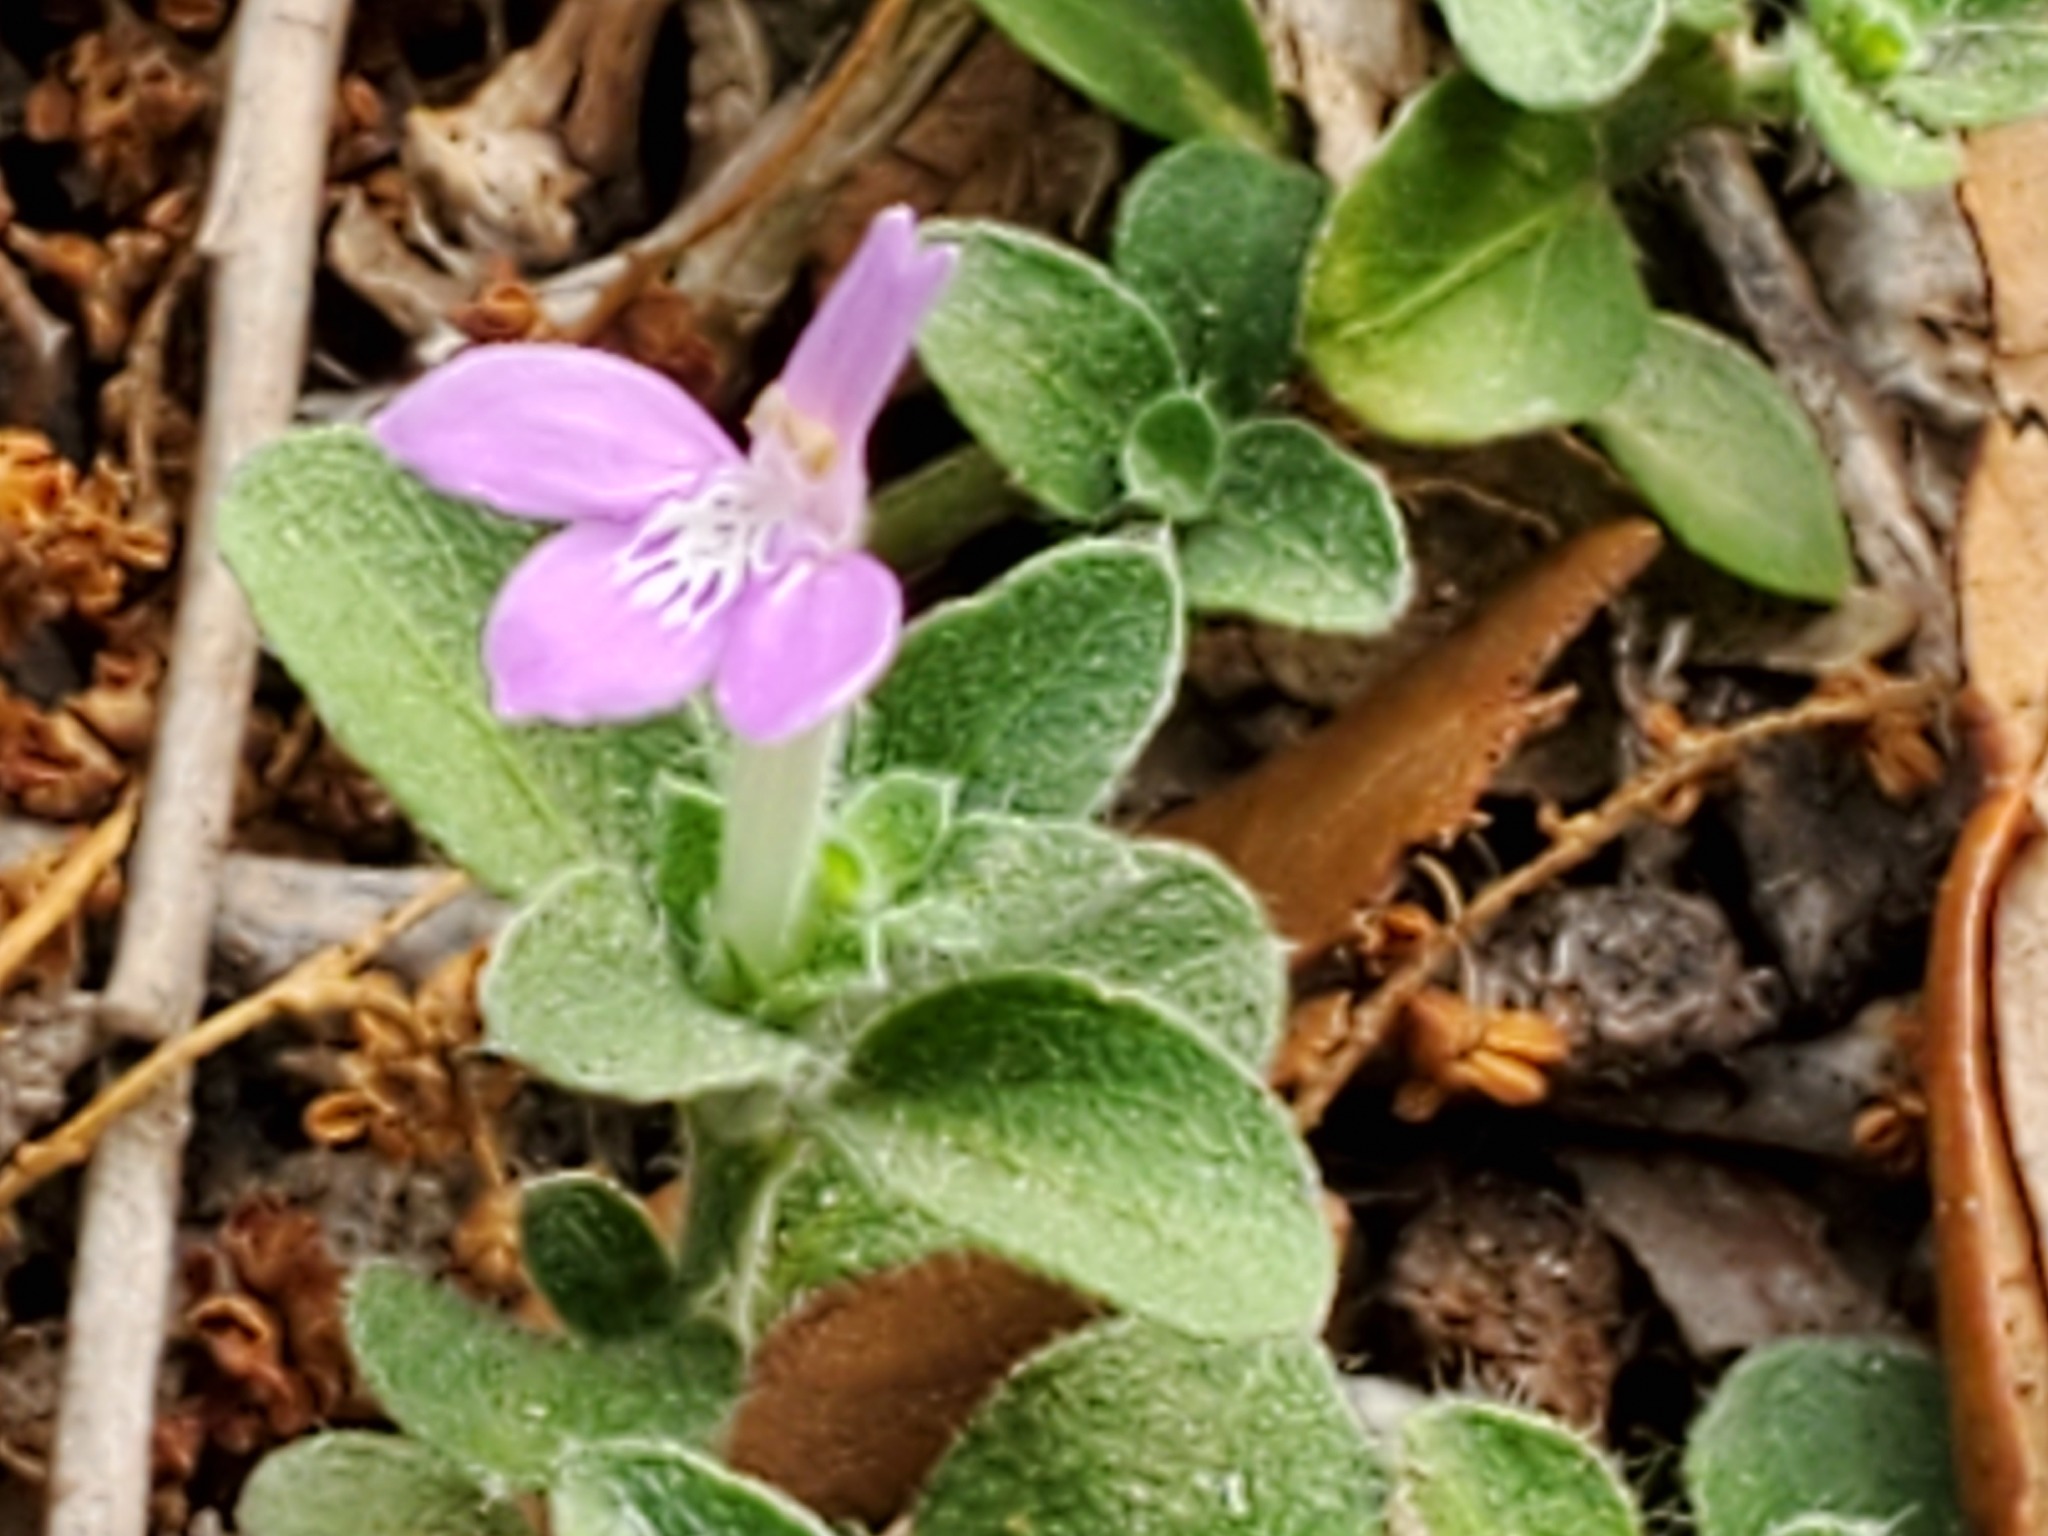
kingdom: Plantae
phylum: Tracheophyta
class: Magnoliopsida
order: Lamiales
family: Acanthaceae
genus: Justicia
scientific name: Justicia pilosella
